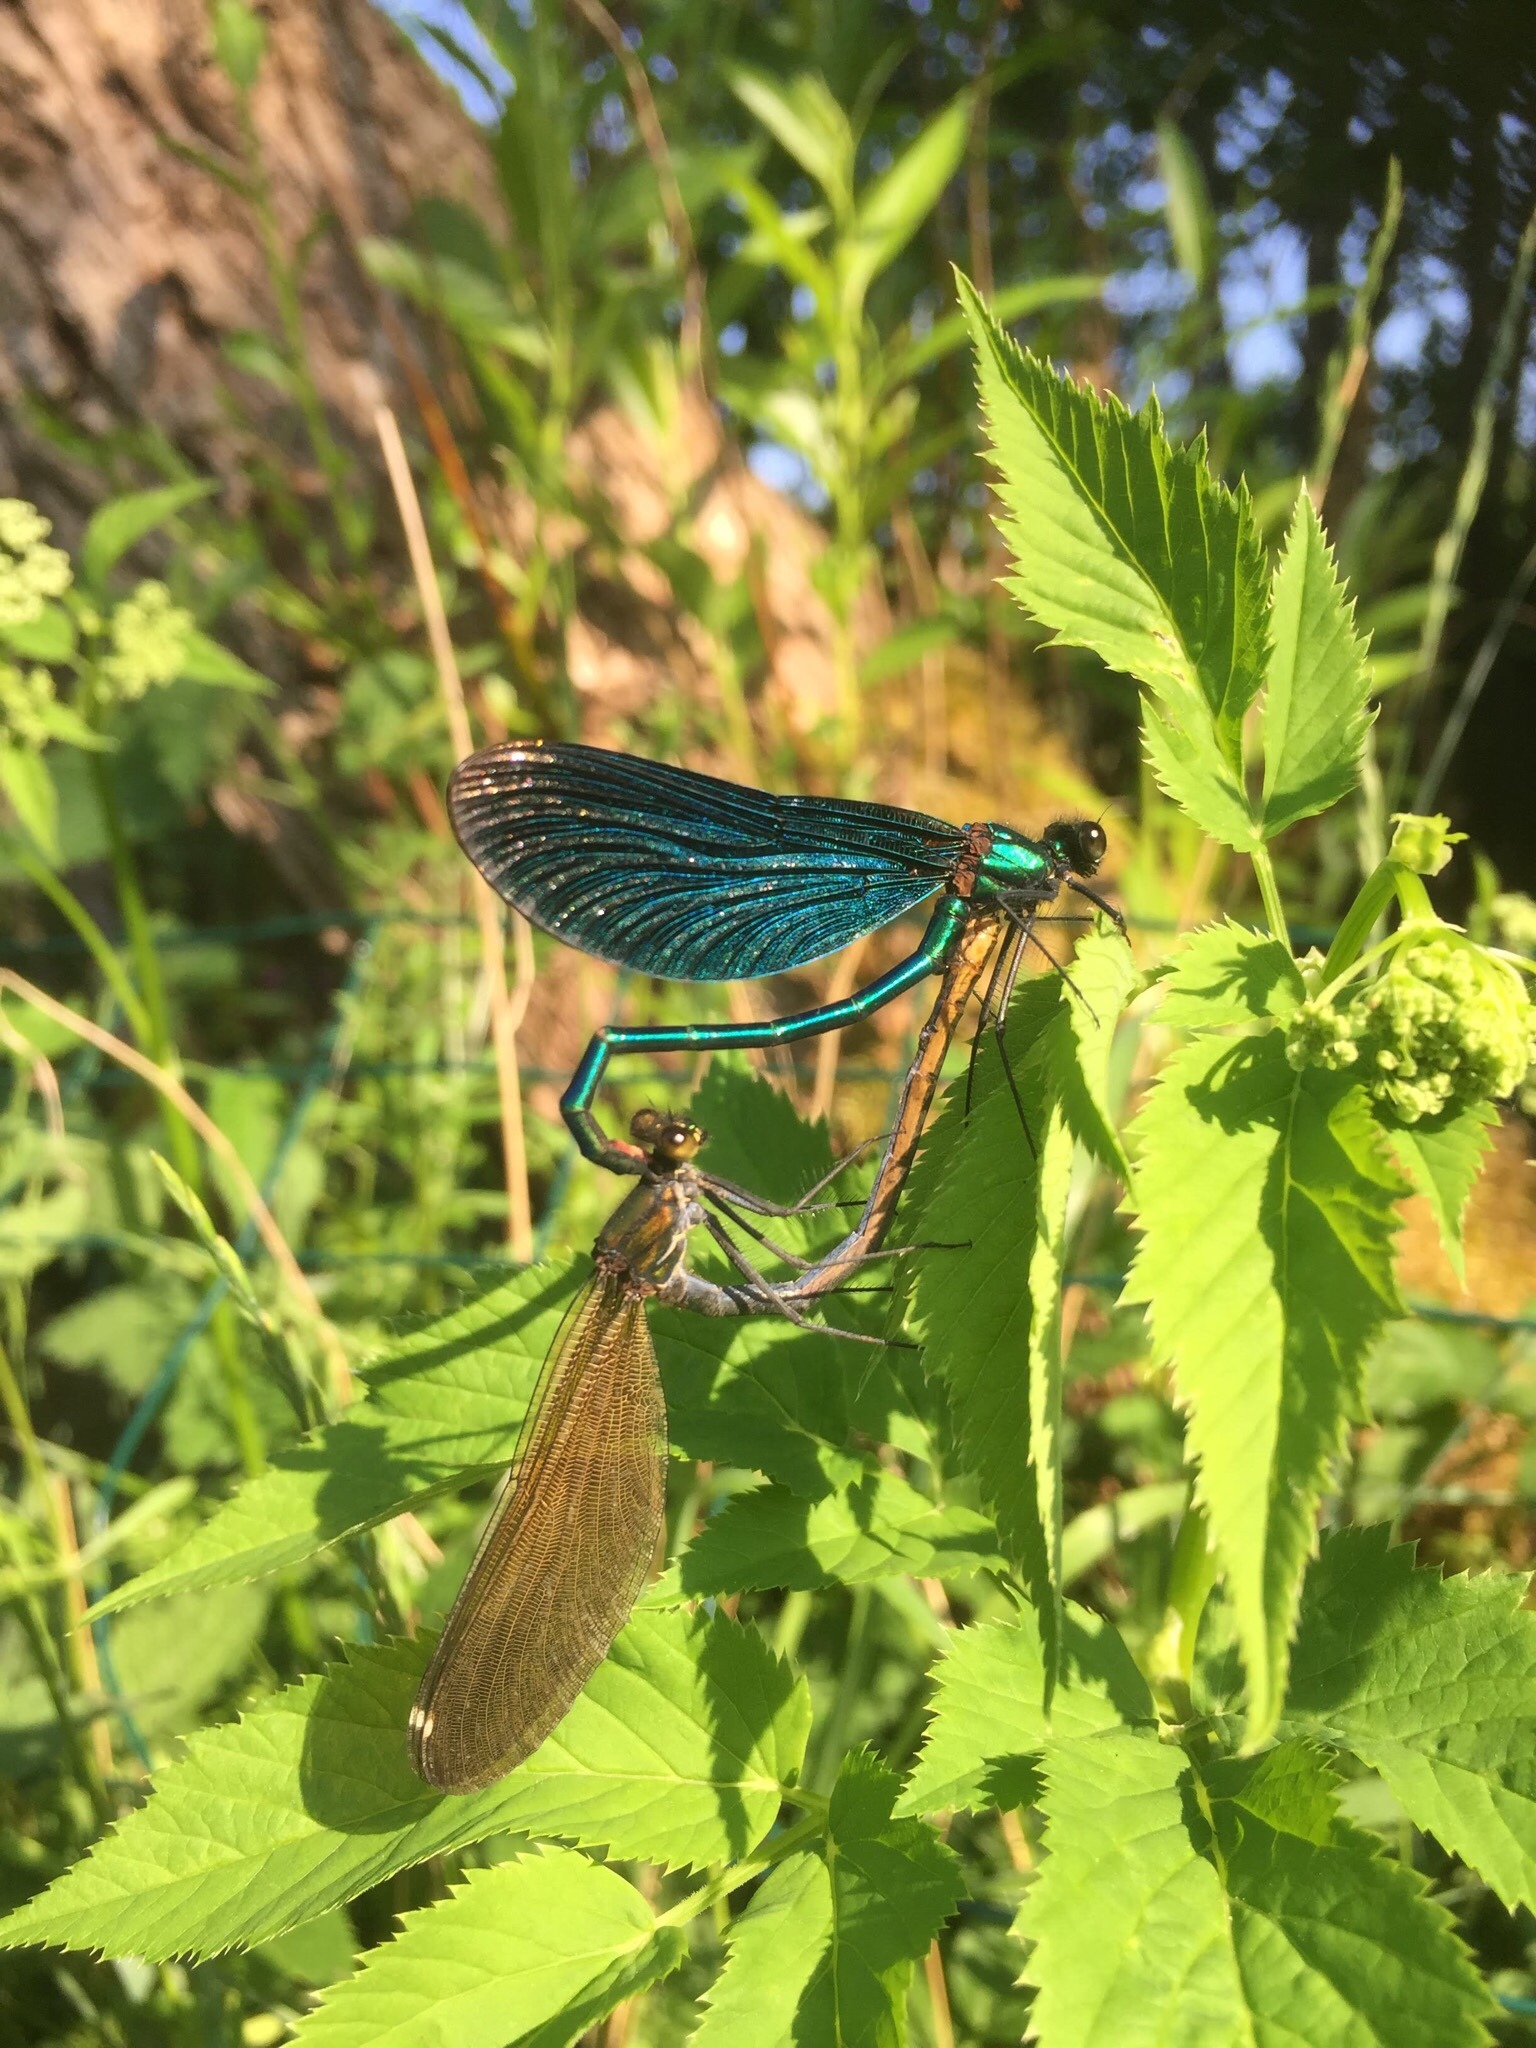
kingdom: Animalia
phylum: Arthropoda
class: Insecta
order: Odonata
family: Calopterygidae
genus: Calopteryx
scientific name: Calopteryx virgo
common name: Beautiful demoiselle
